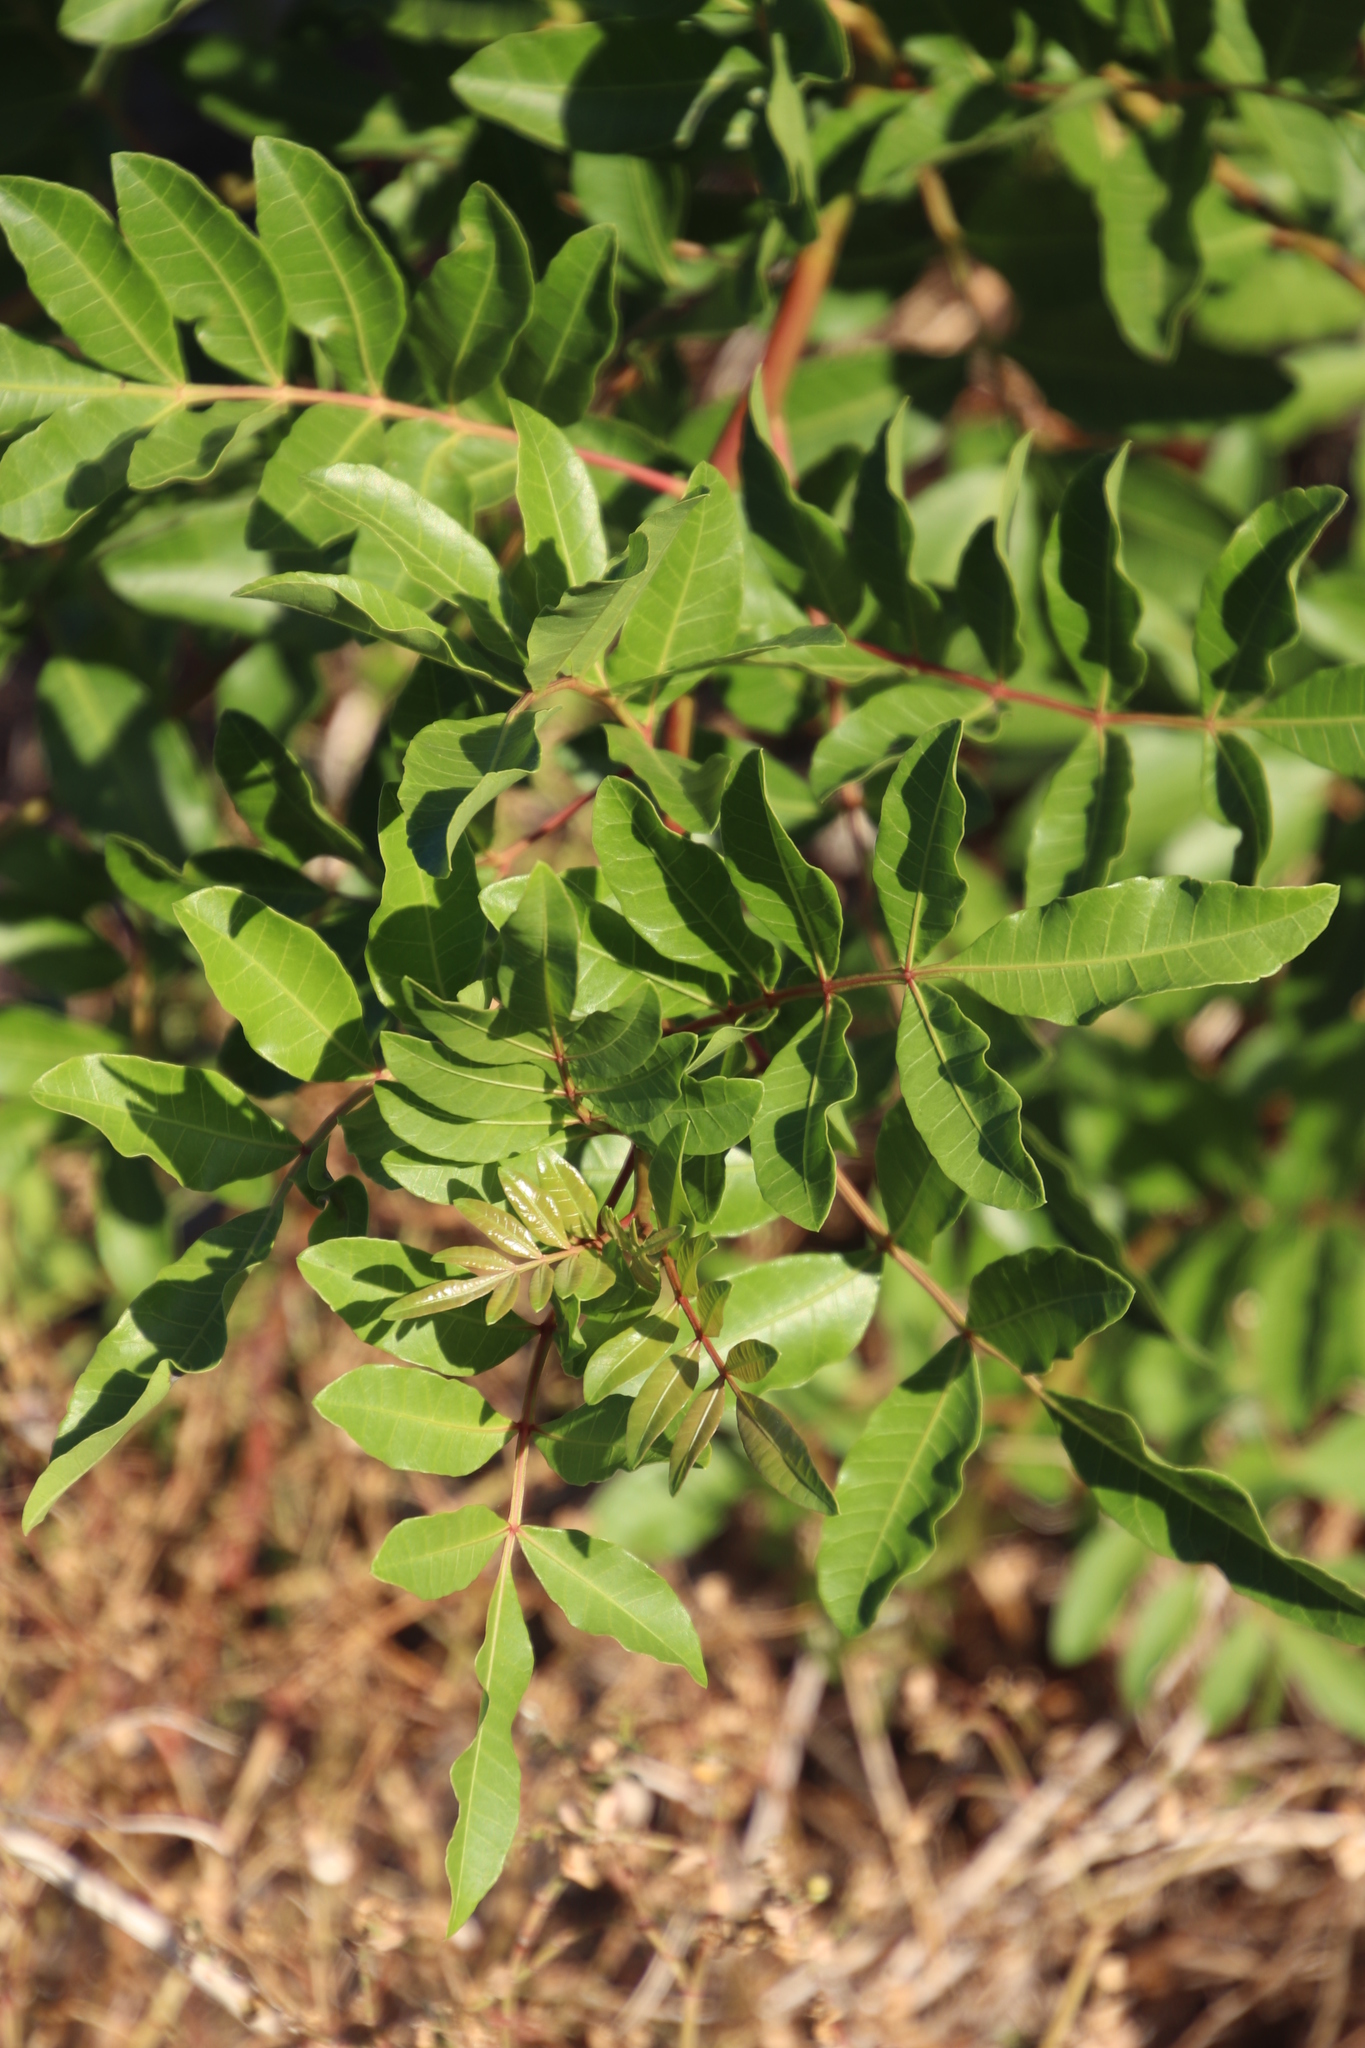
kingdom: Plantae
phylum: Tracheophyta
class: Magnoliopsida
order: Sapindales
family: Anacardiaceae
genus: Schinus
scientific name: Schinus terebinthifolia
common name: Brazilian peppertree
